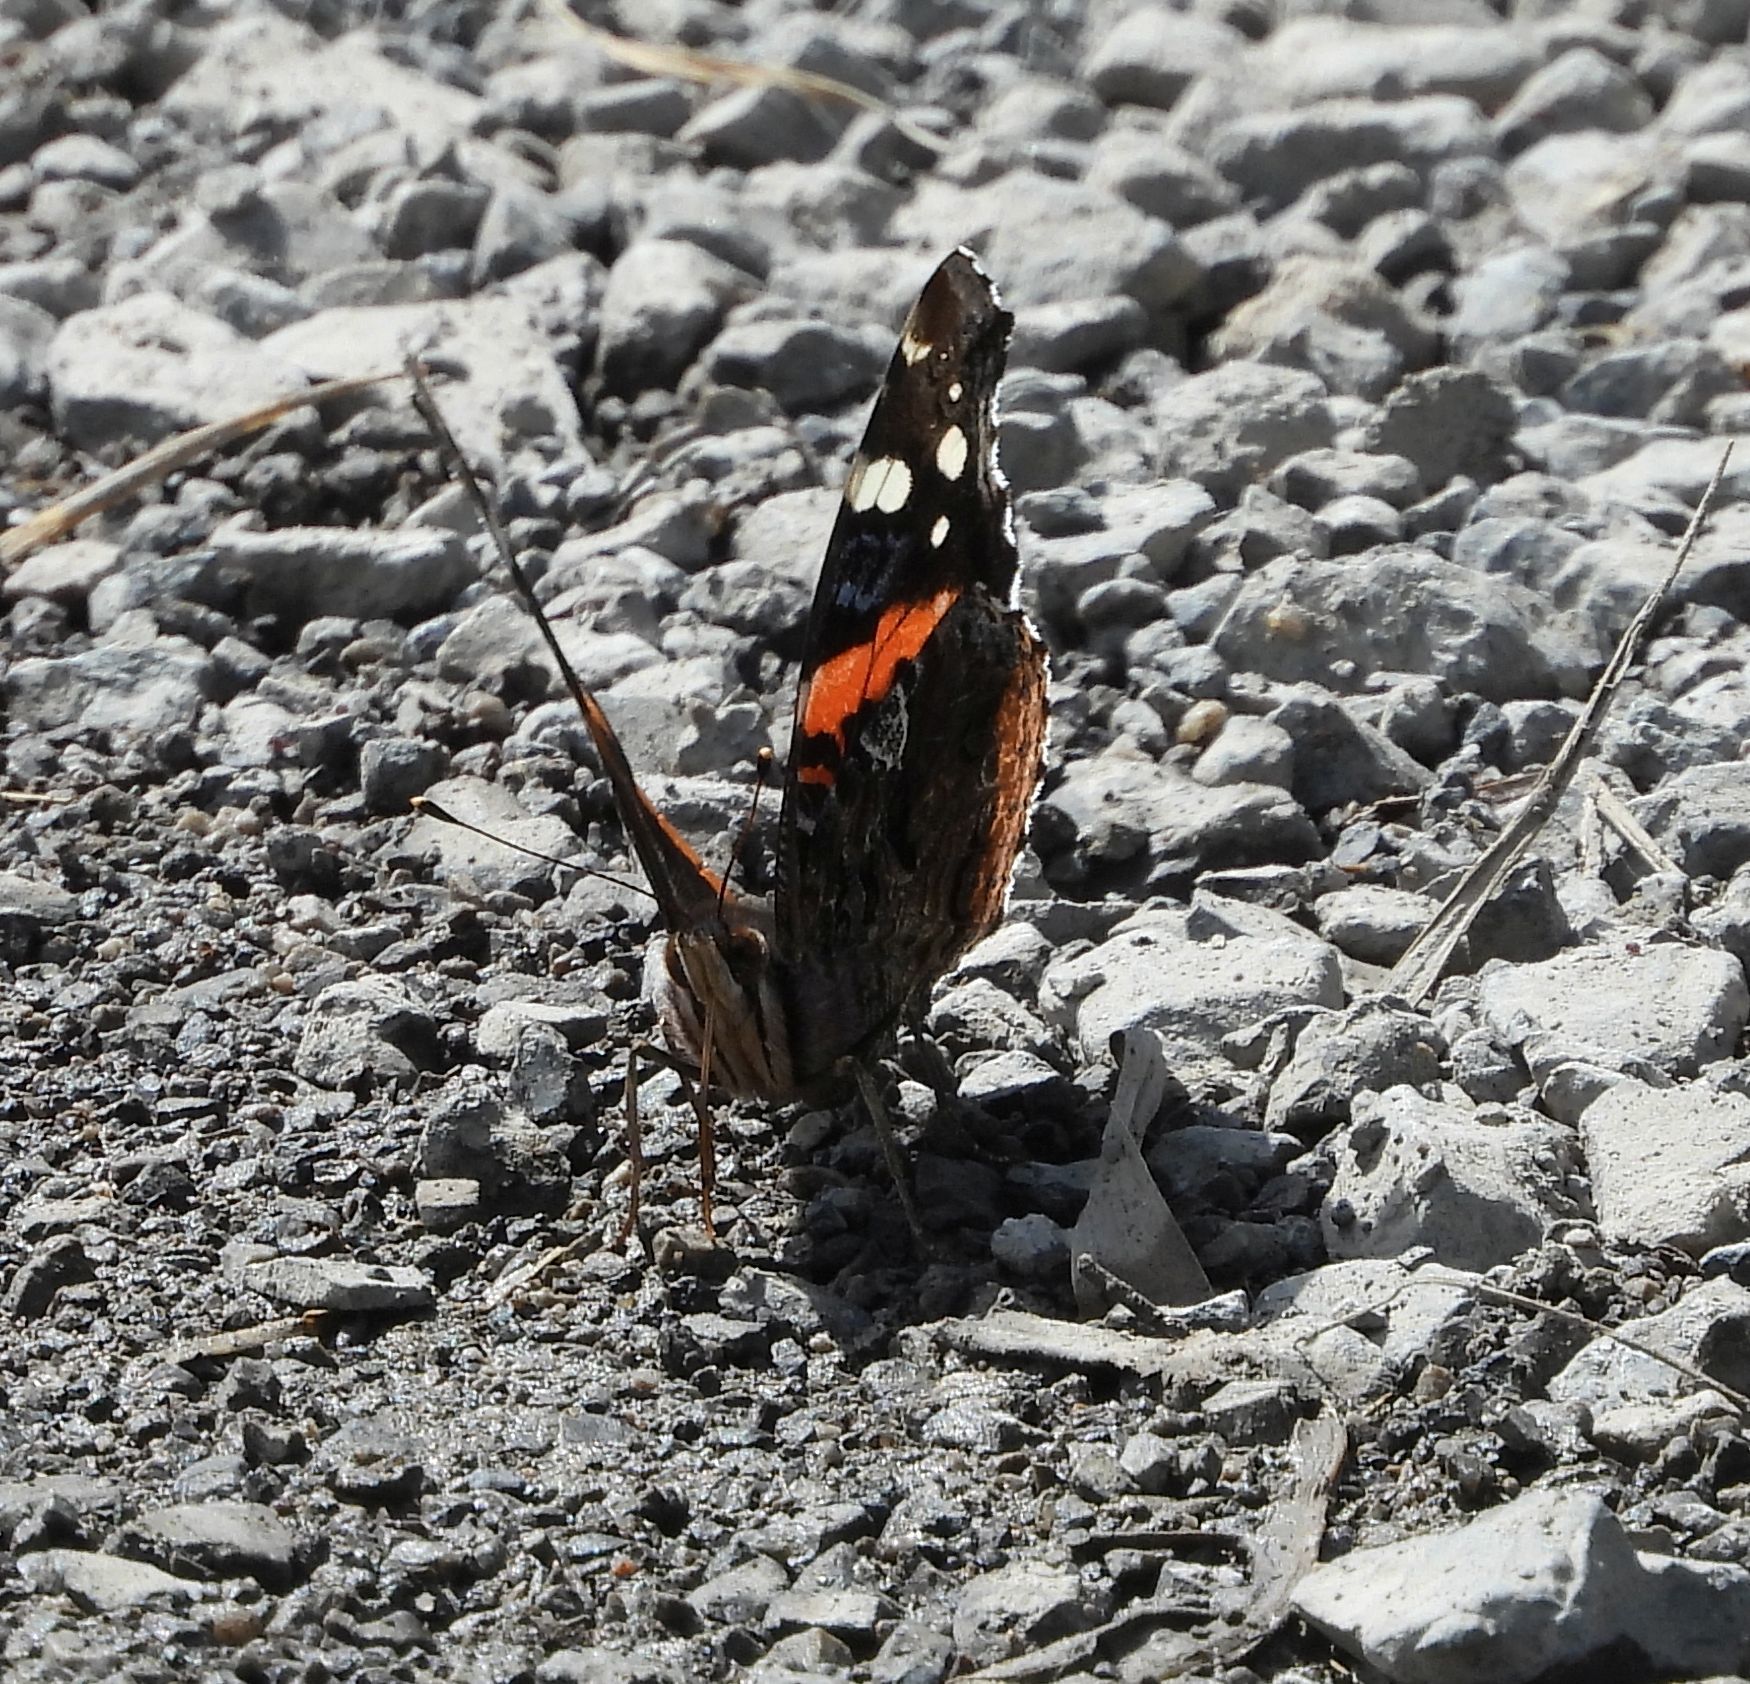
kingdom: Animalia
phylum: Arthropoda
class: Insecta
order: Lepidoptera
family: Nymphalidae
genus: Vanessa
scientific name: Vanessa atalanta
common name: Red admiral
